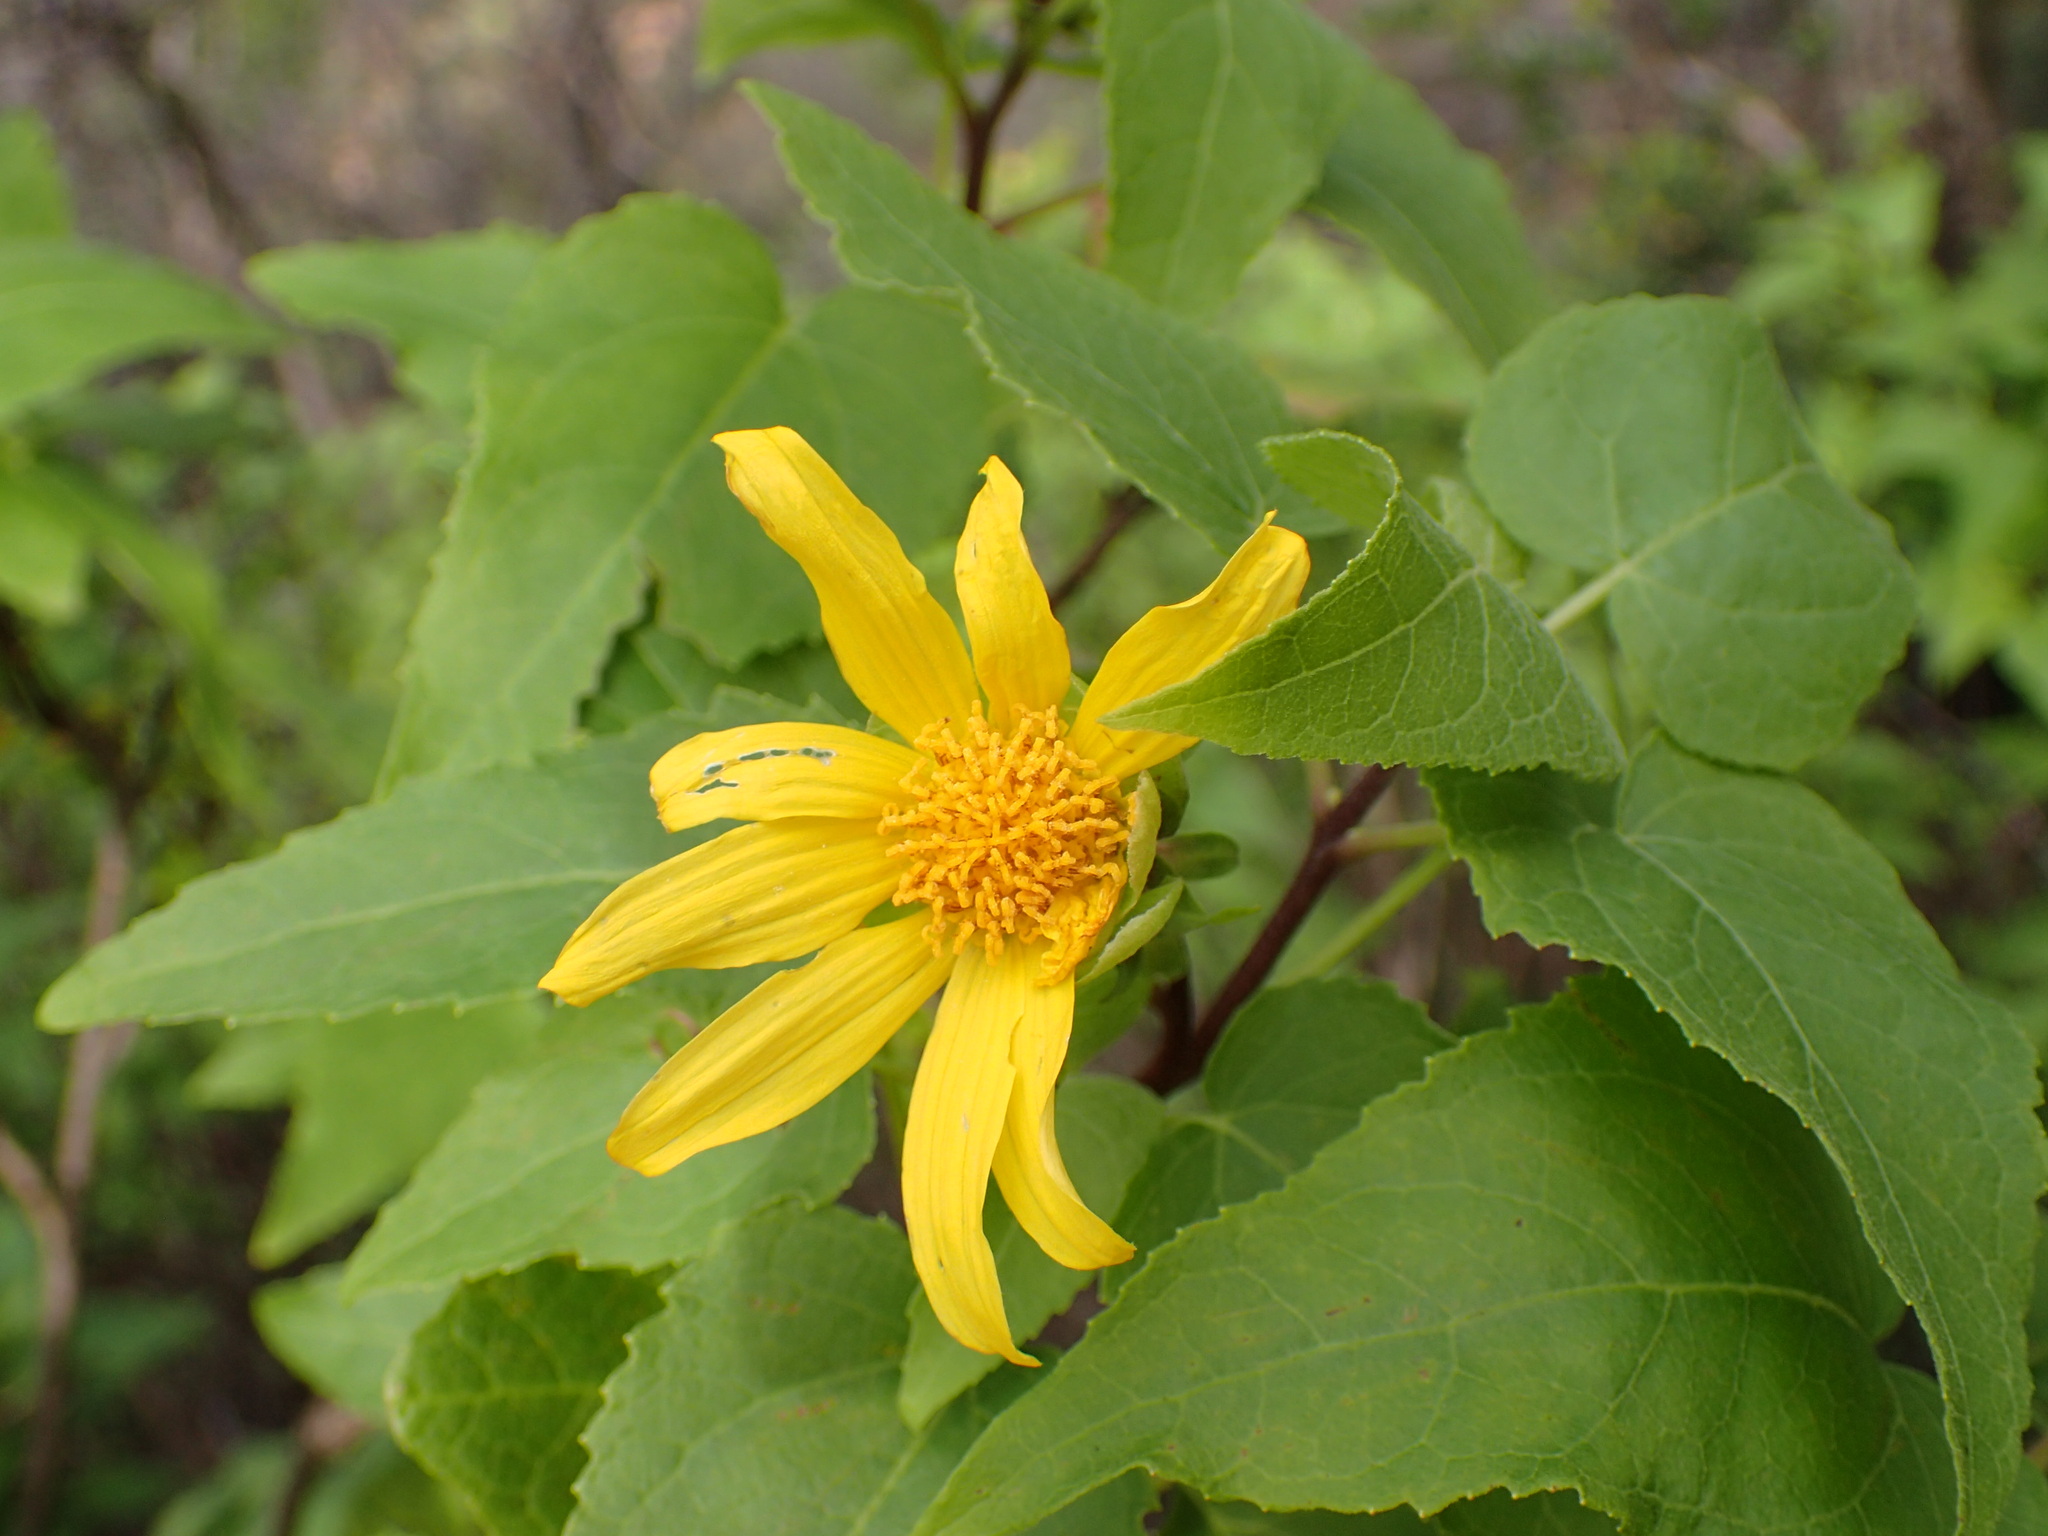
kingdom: Plantae
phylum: Tracheophyta
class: Magnoliopsida
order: Asterales
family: Asteraceae
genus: Venegasia
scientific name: Venegasia carpesioides
